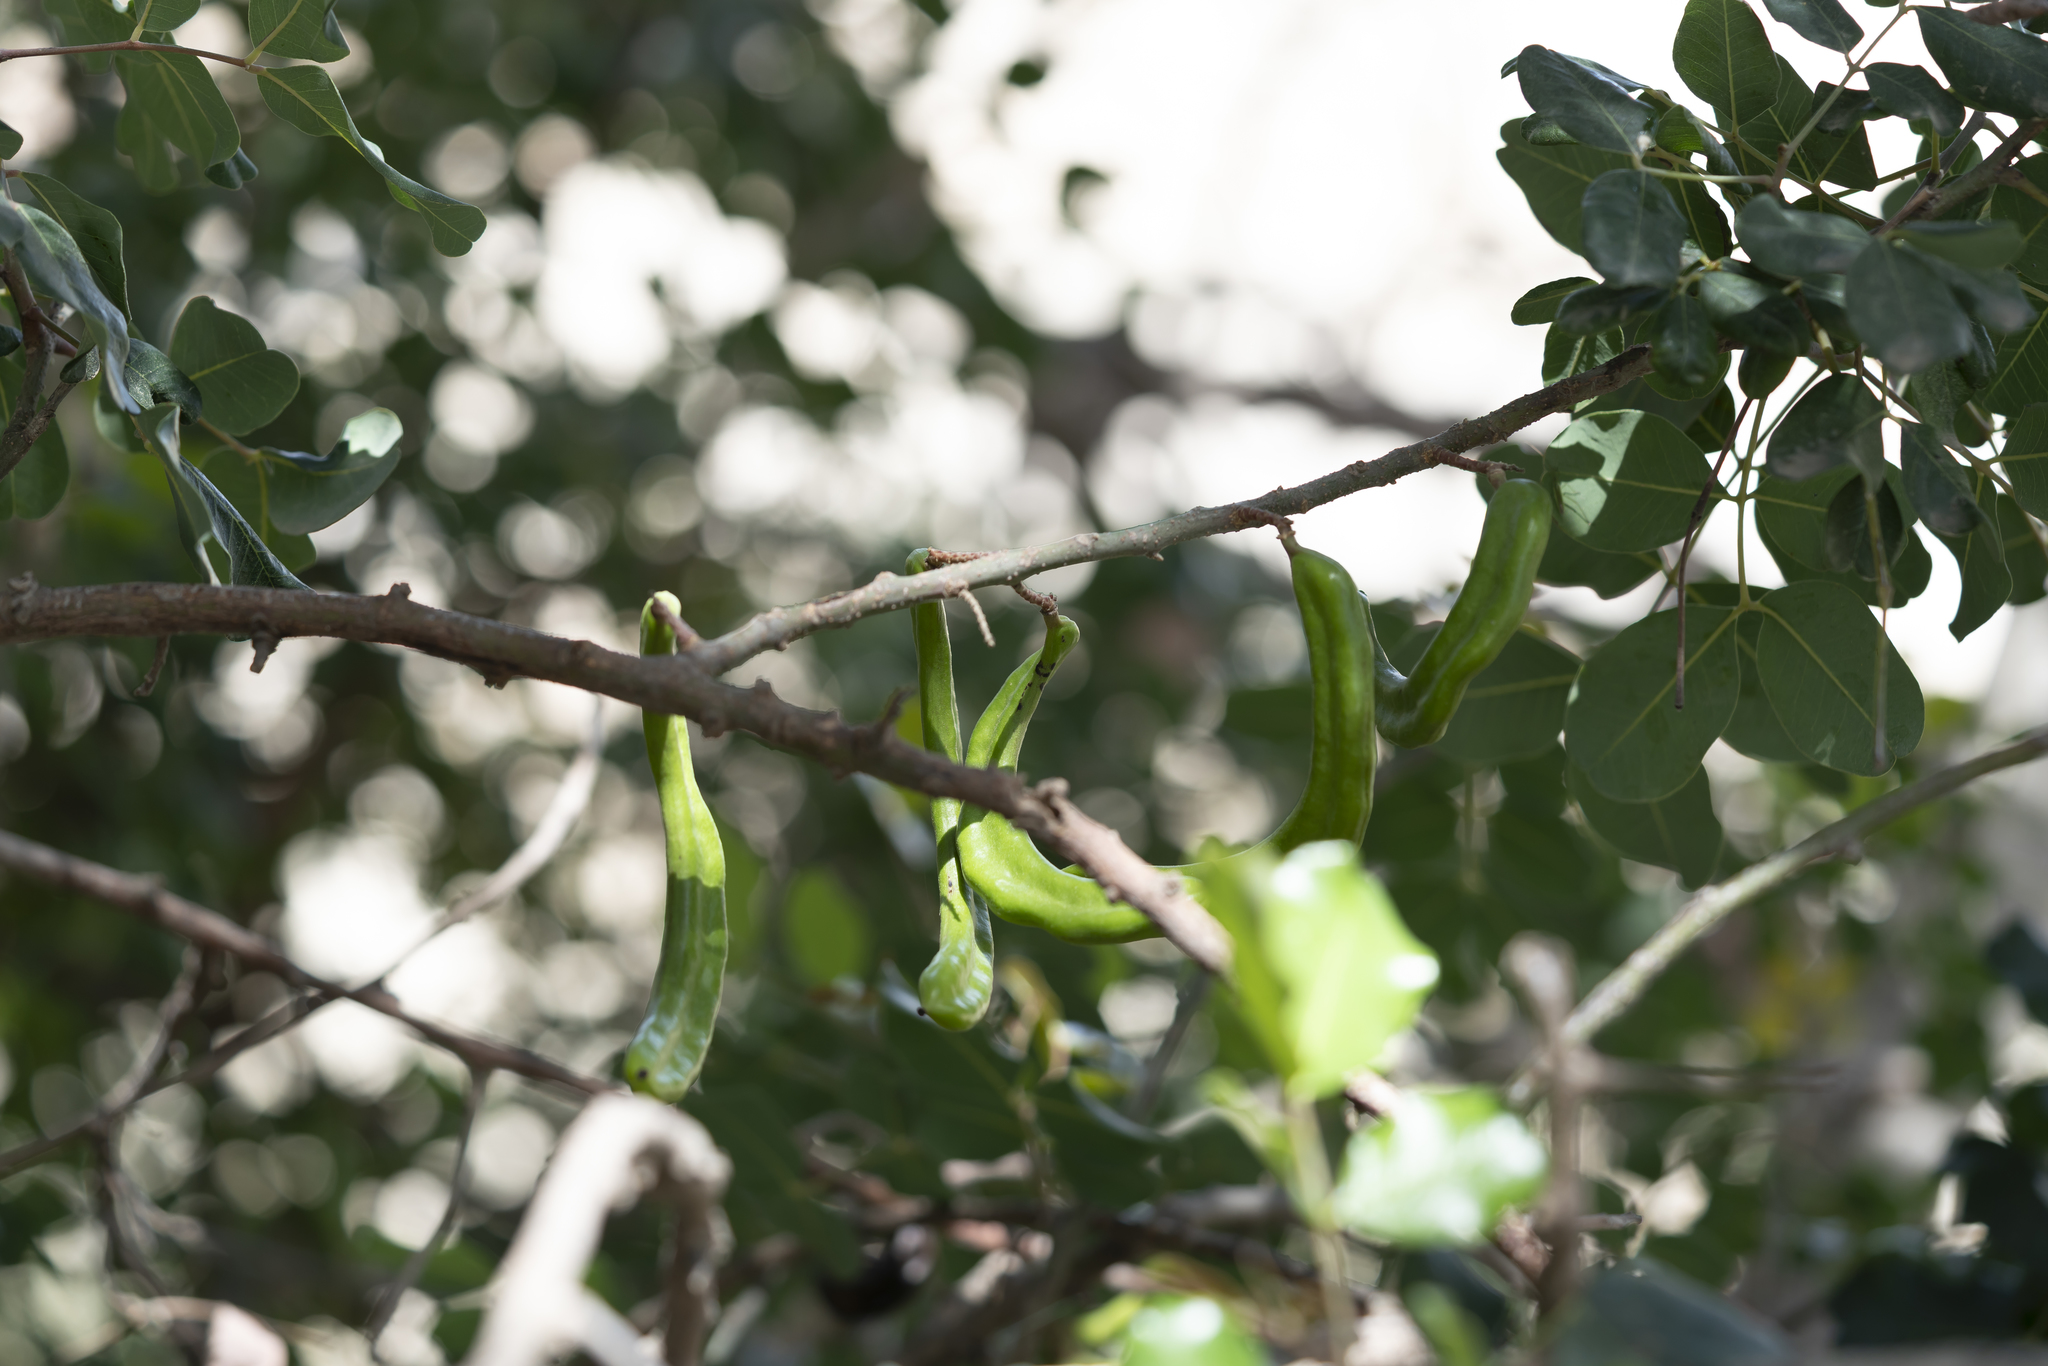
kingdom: Plantae
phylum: Tracheophyta
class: Magnoliopsida
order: Fabales
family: Fabaceae
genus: Ceratonia
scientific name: Ceratonia siliqua
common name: Carob
